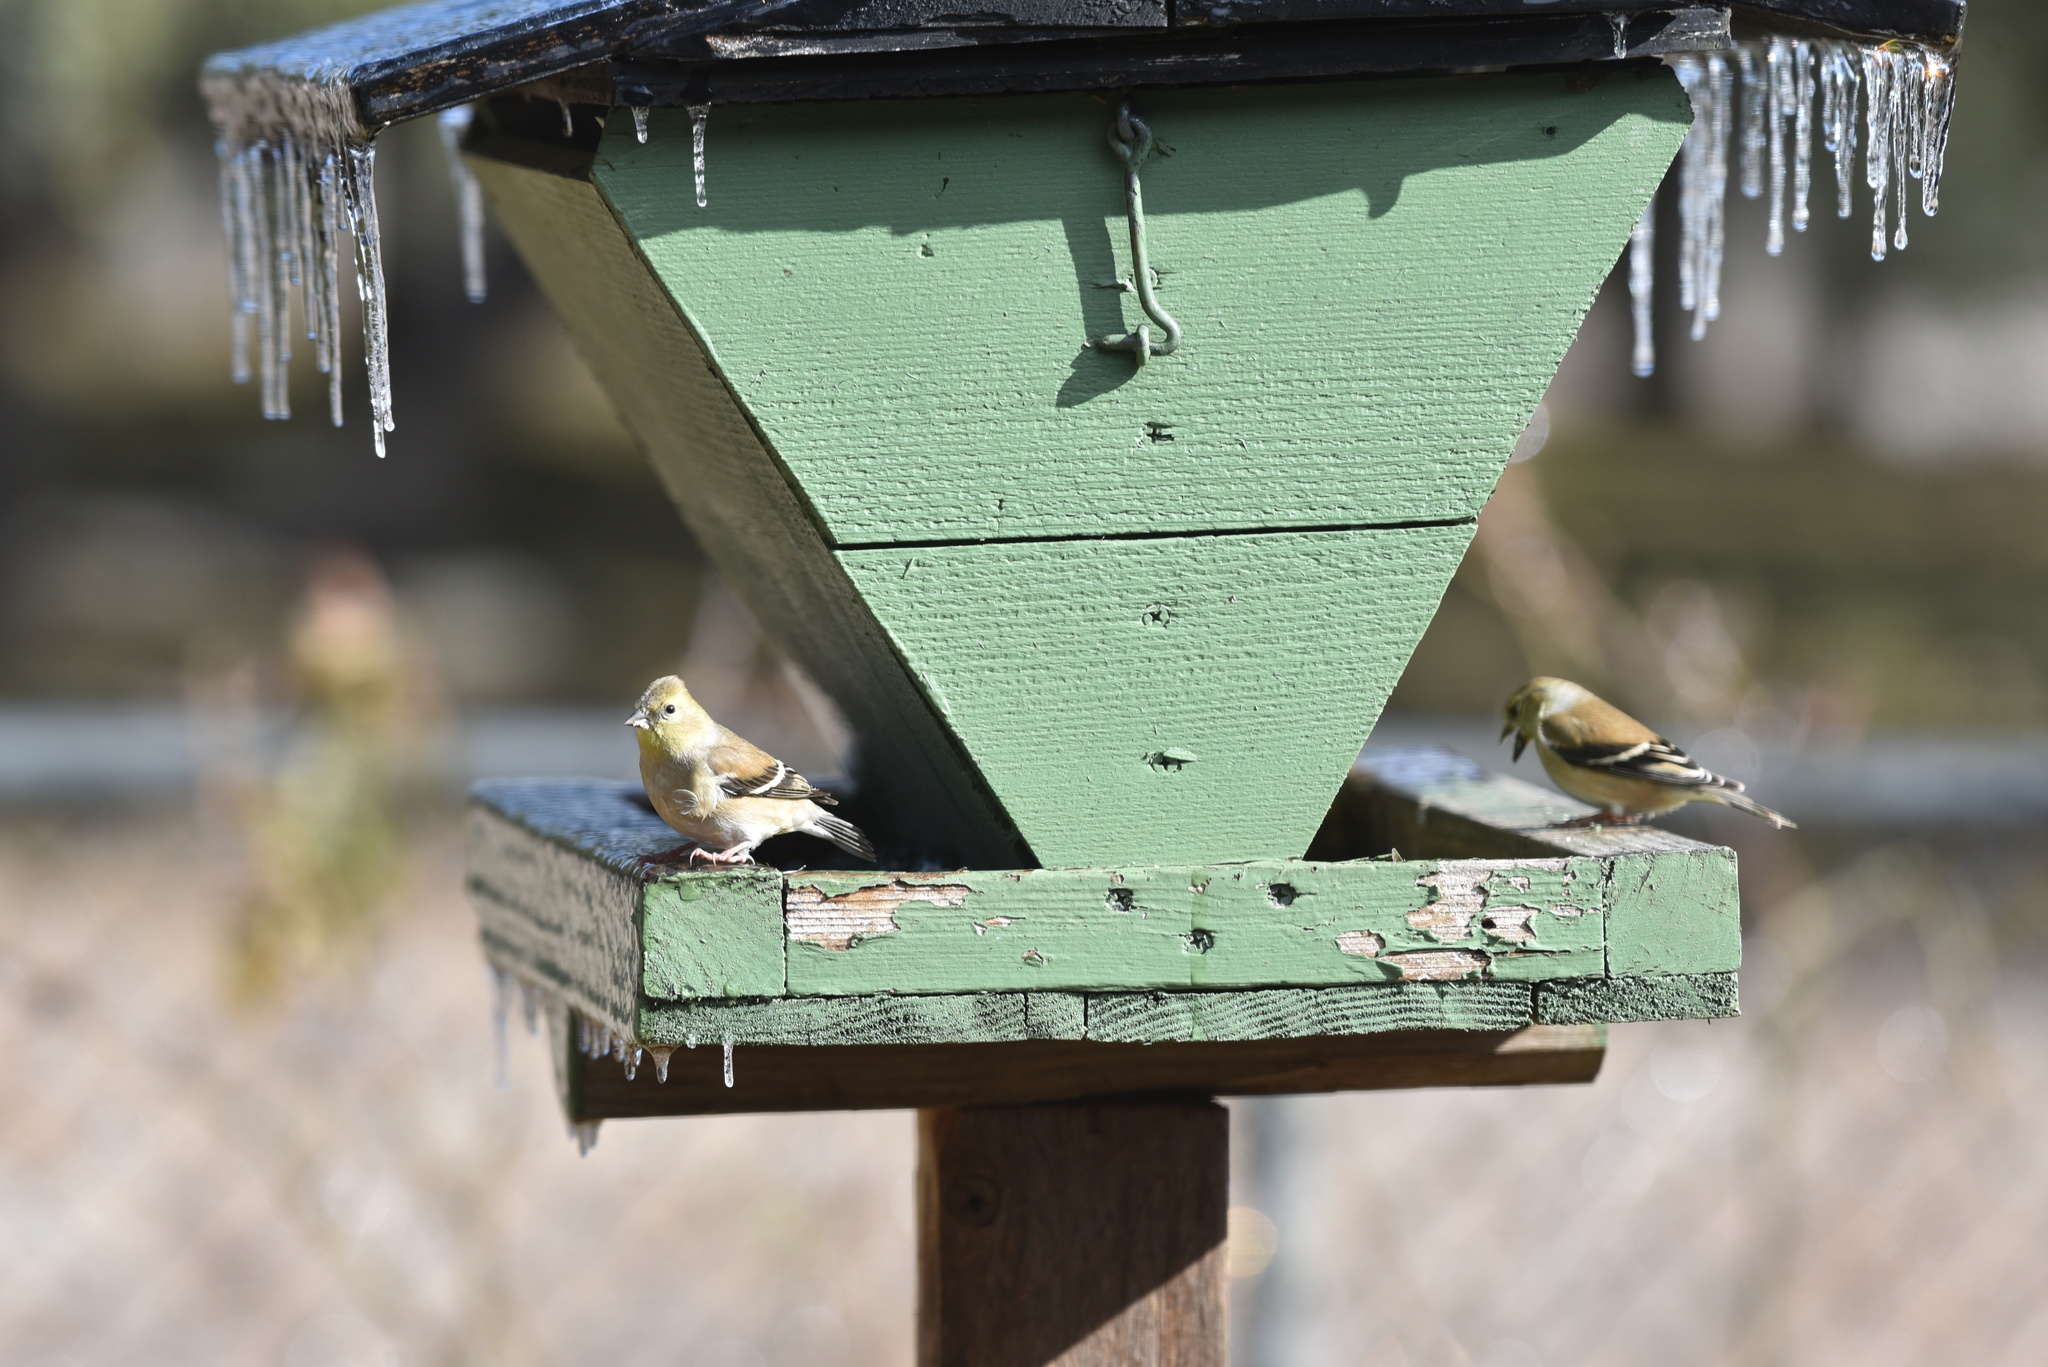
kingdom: Animalia
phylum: Chordata
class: Aves
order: Passeriformes
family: Fringillidae
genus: Spinus
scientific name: Spinus tristis
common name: American goldfinch
